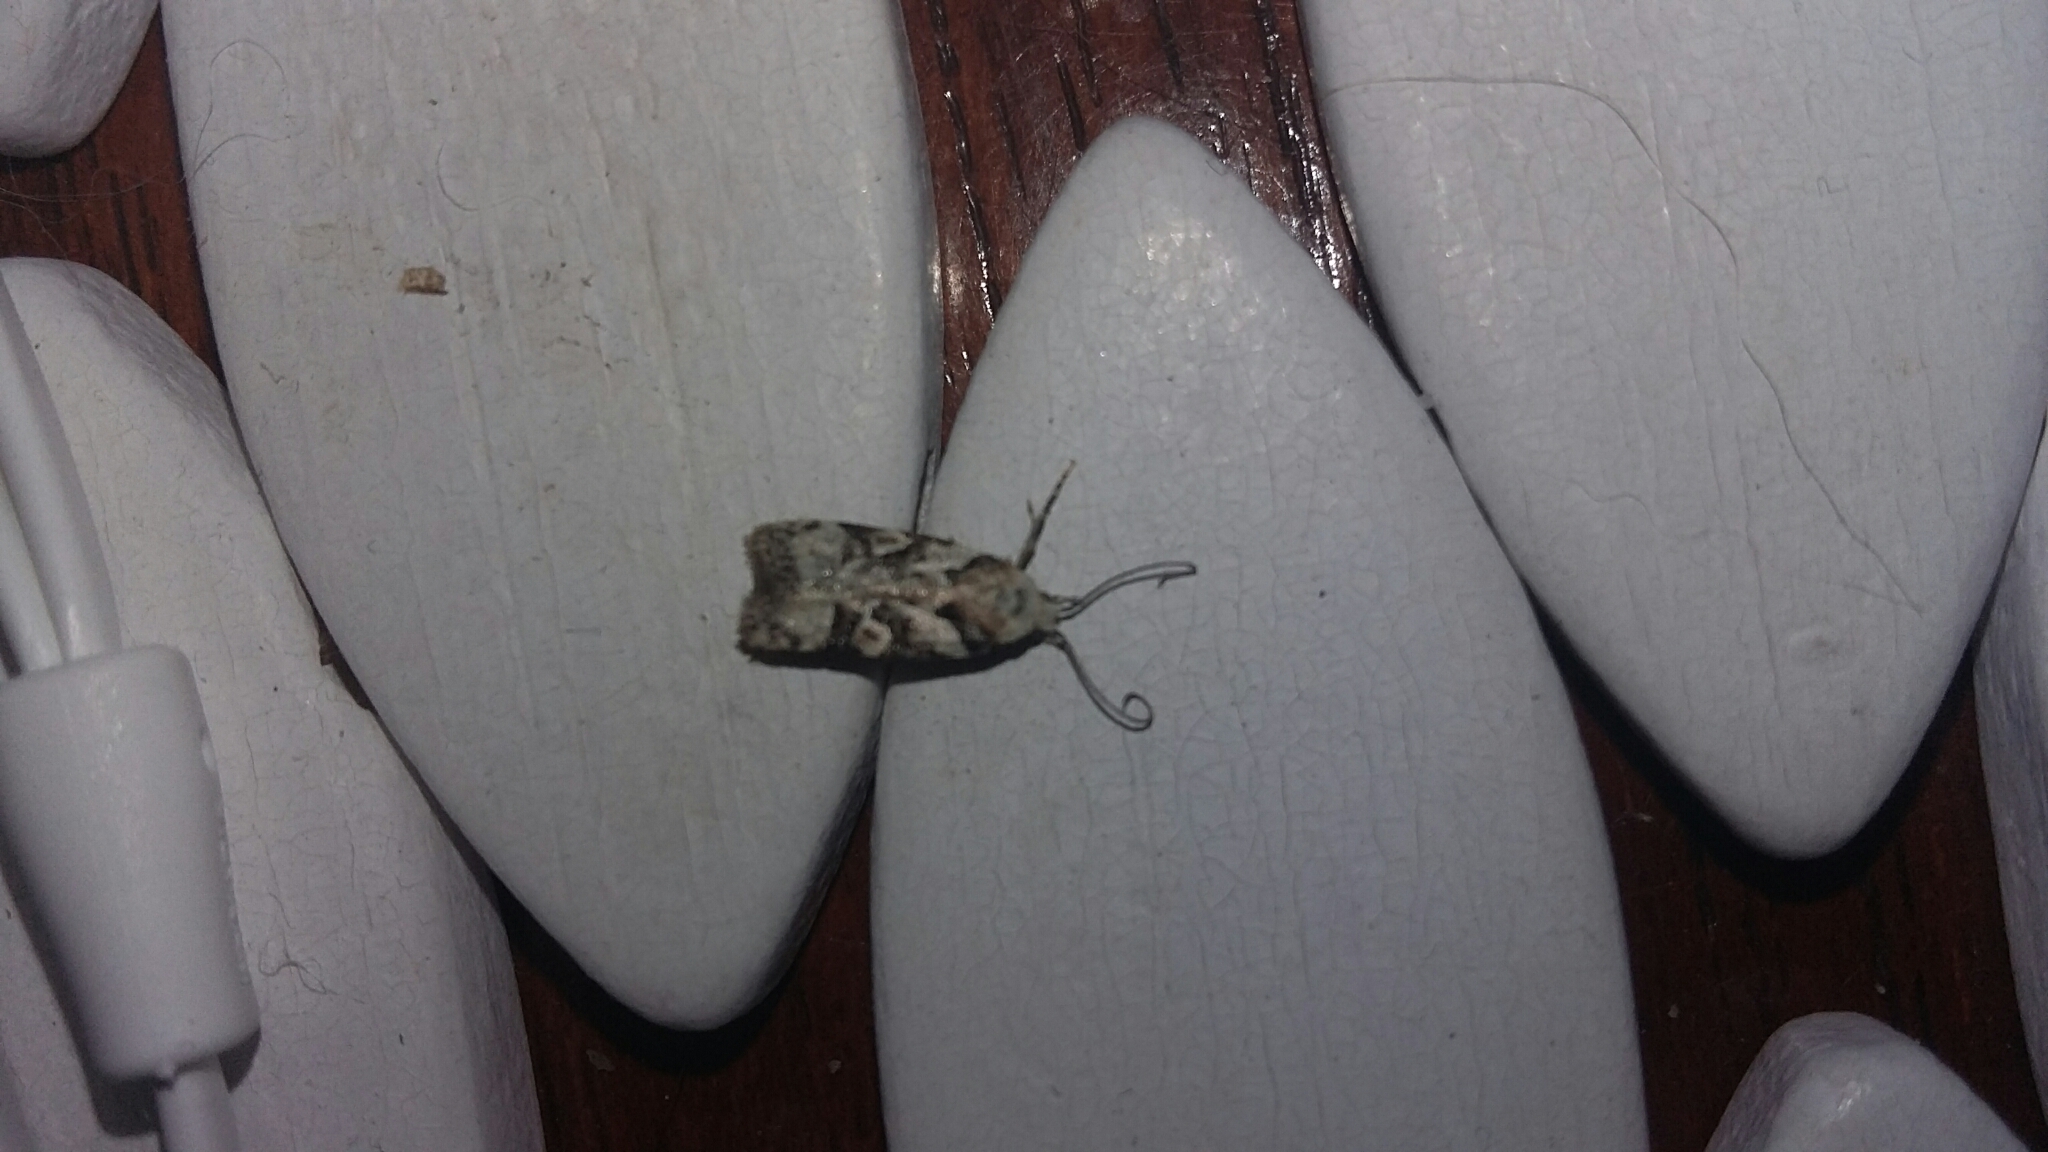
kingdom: Animalia
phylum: Arthropoda
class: Insecta
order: Lepidoptera
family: Oecophoridae
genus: Izatha
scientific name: Izatha epiphanes
